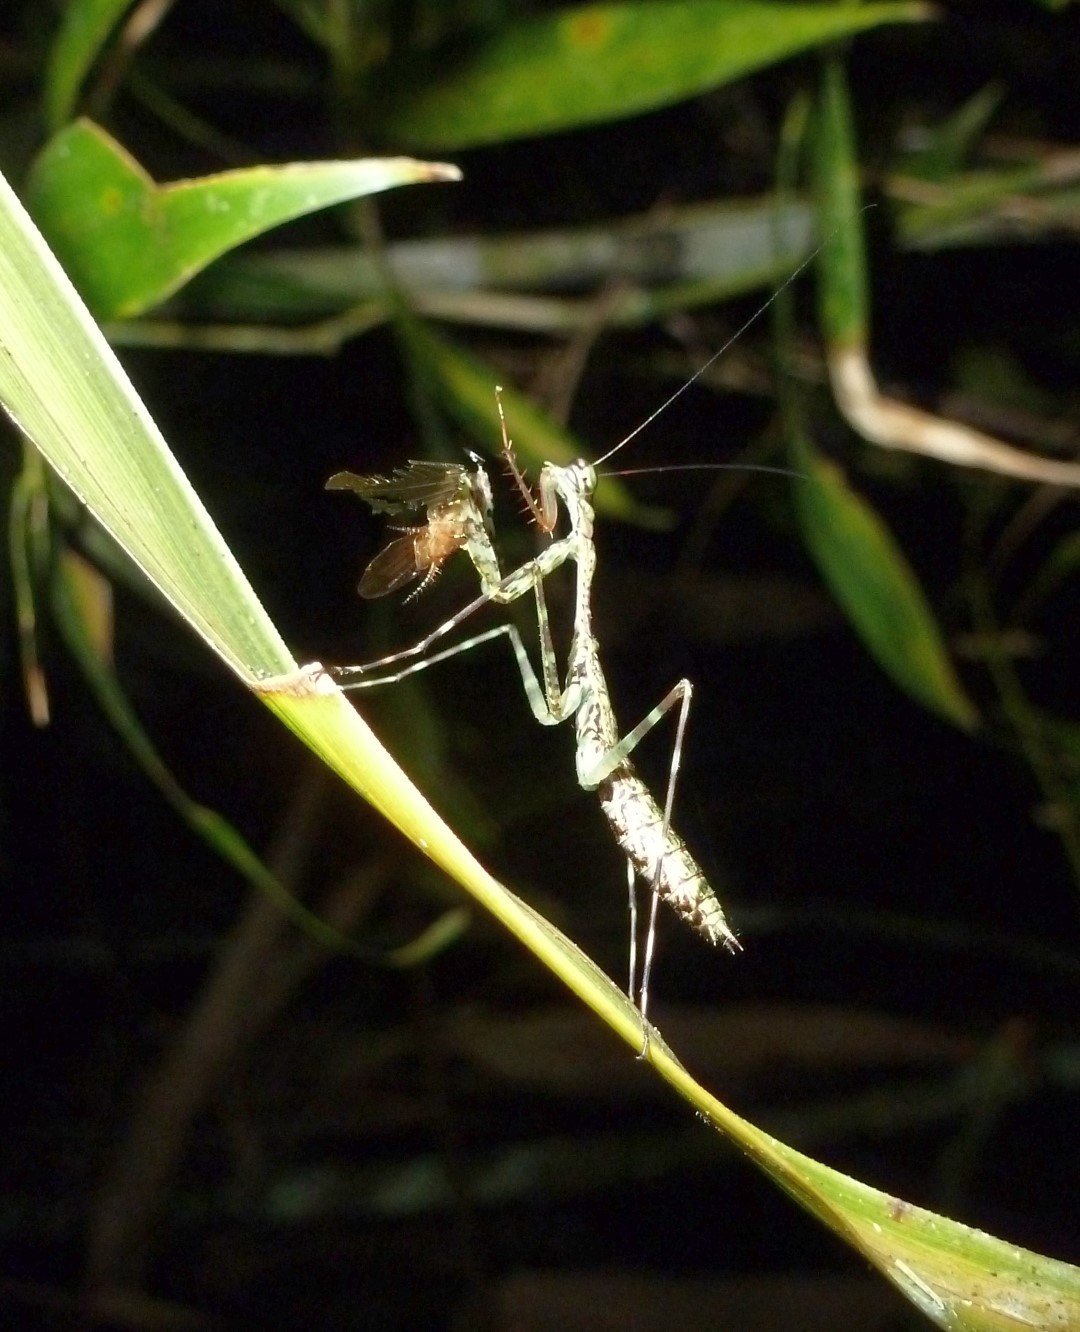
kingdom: Animalia
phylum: Arthropoda
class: Insecta
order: Mantodea
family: Majangidae
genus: Liturgusella
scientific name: Liturgusella malagassa
